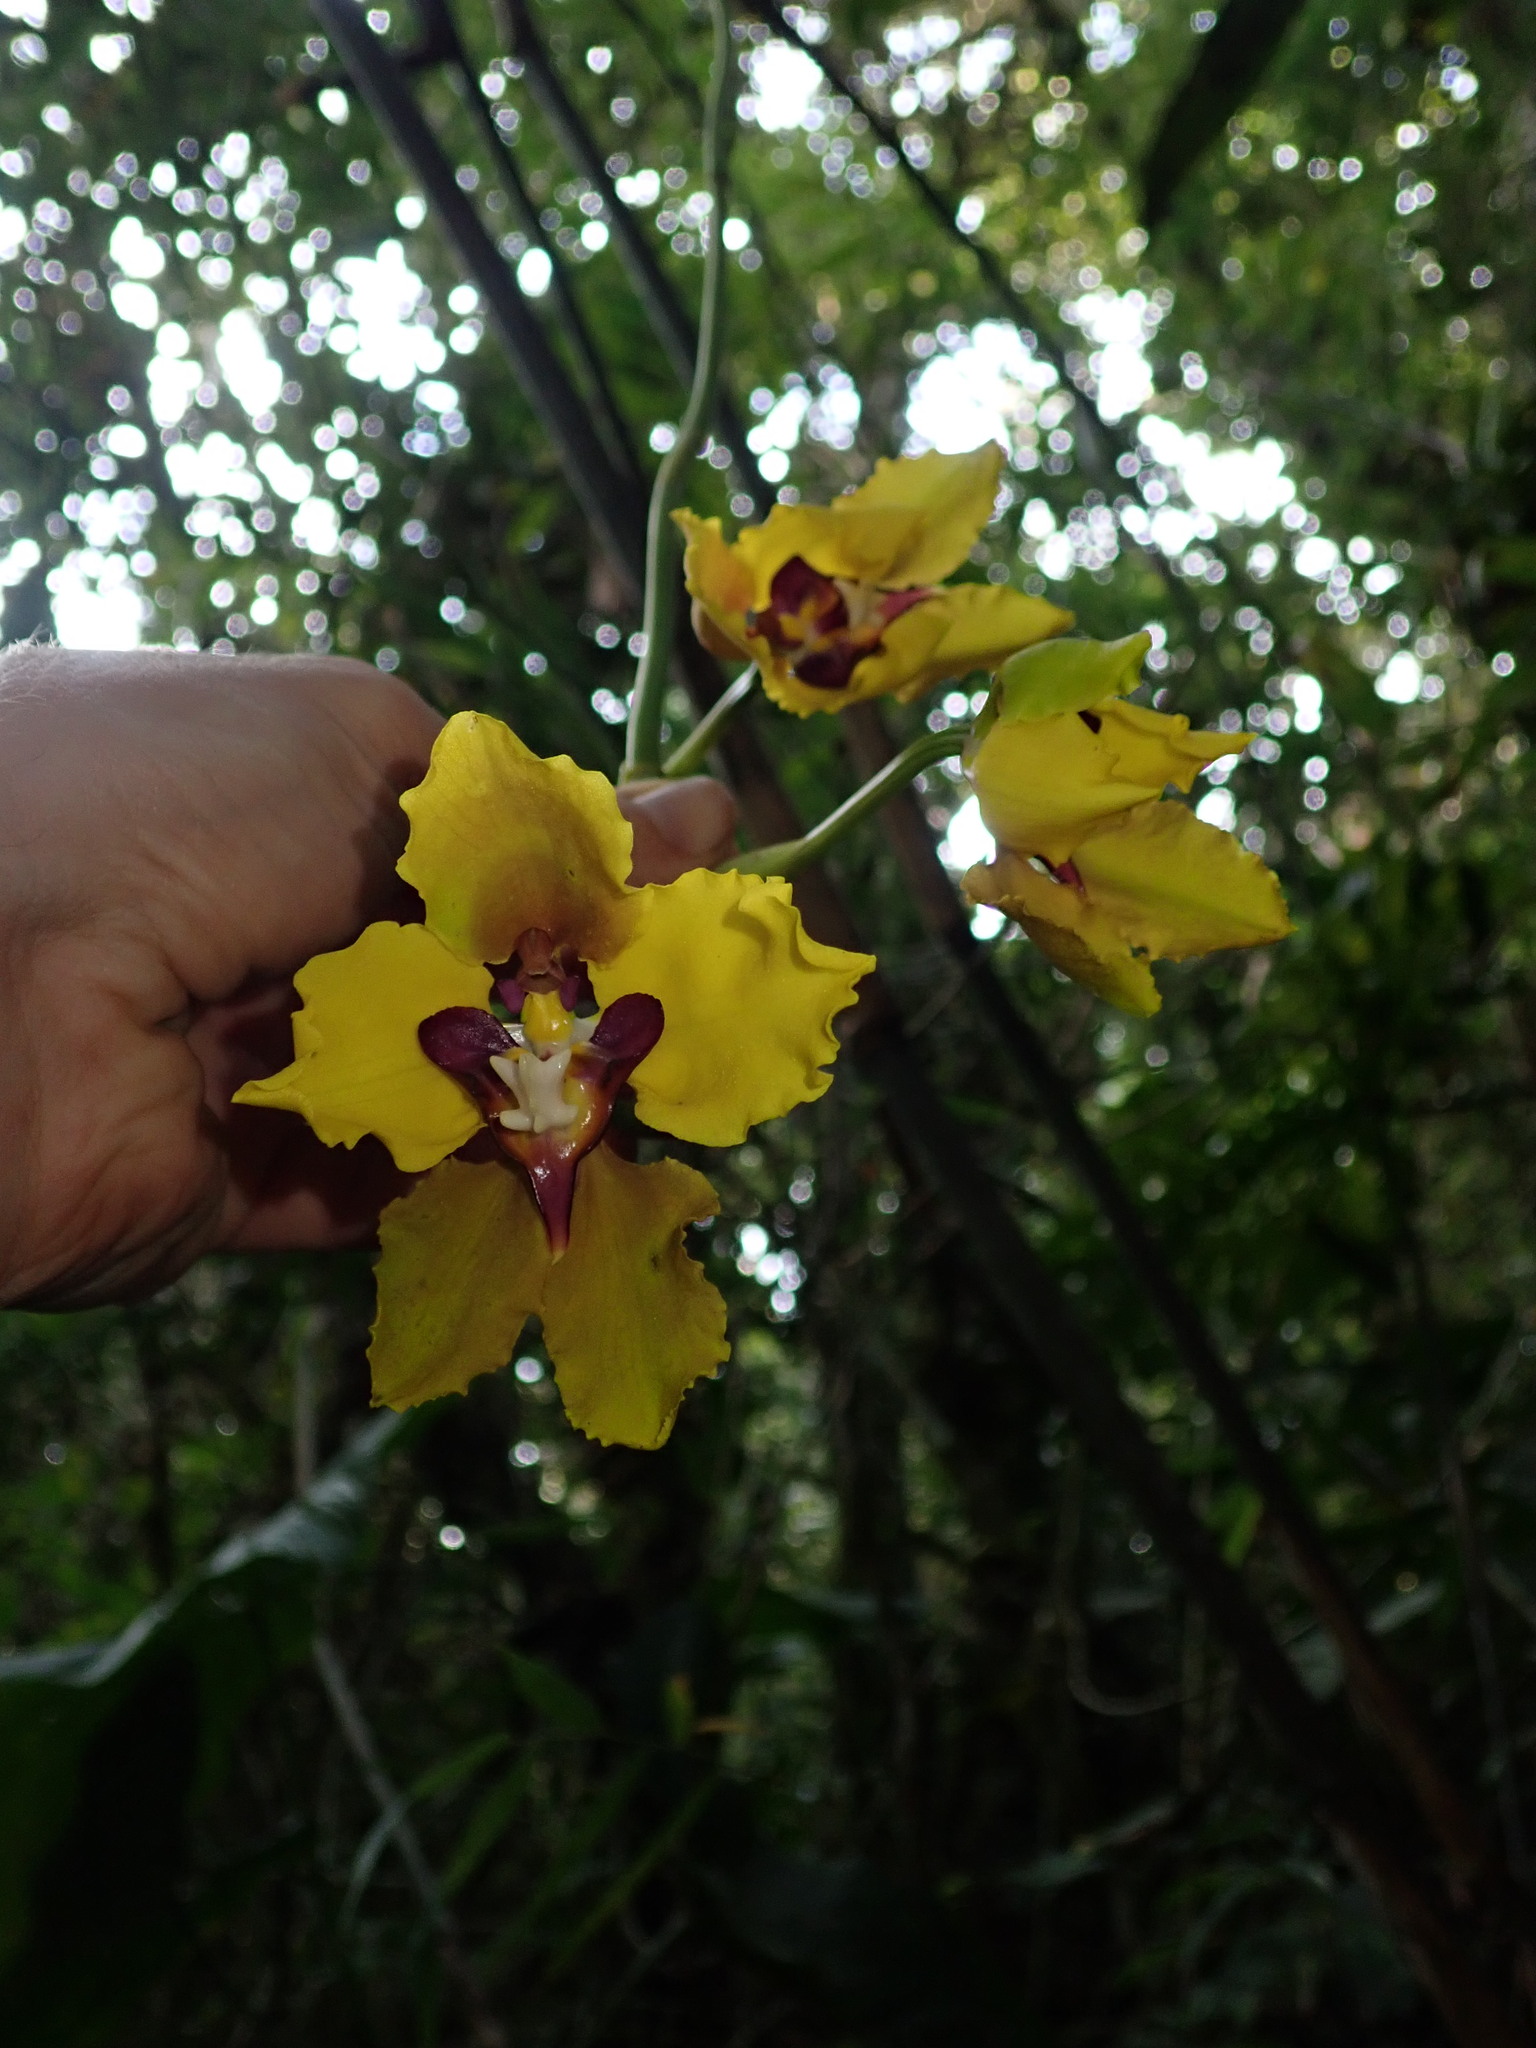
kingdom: Plantae
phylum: Tracheophyta
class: Liliopsida
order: Asparagales
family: Orchidaceae
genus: Cyrtochilum
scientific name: Cyrtochilum macranthum
